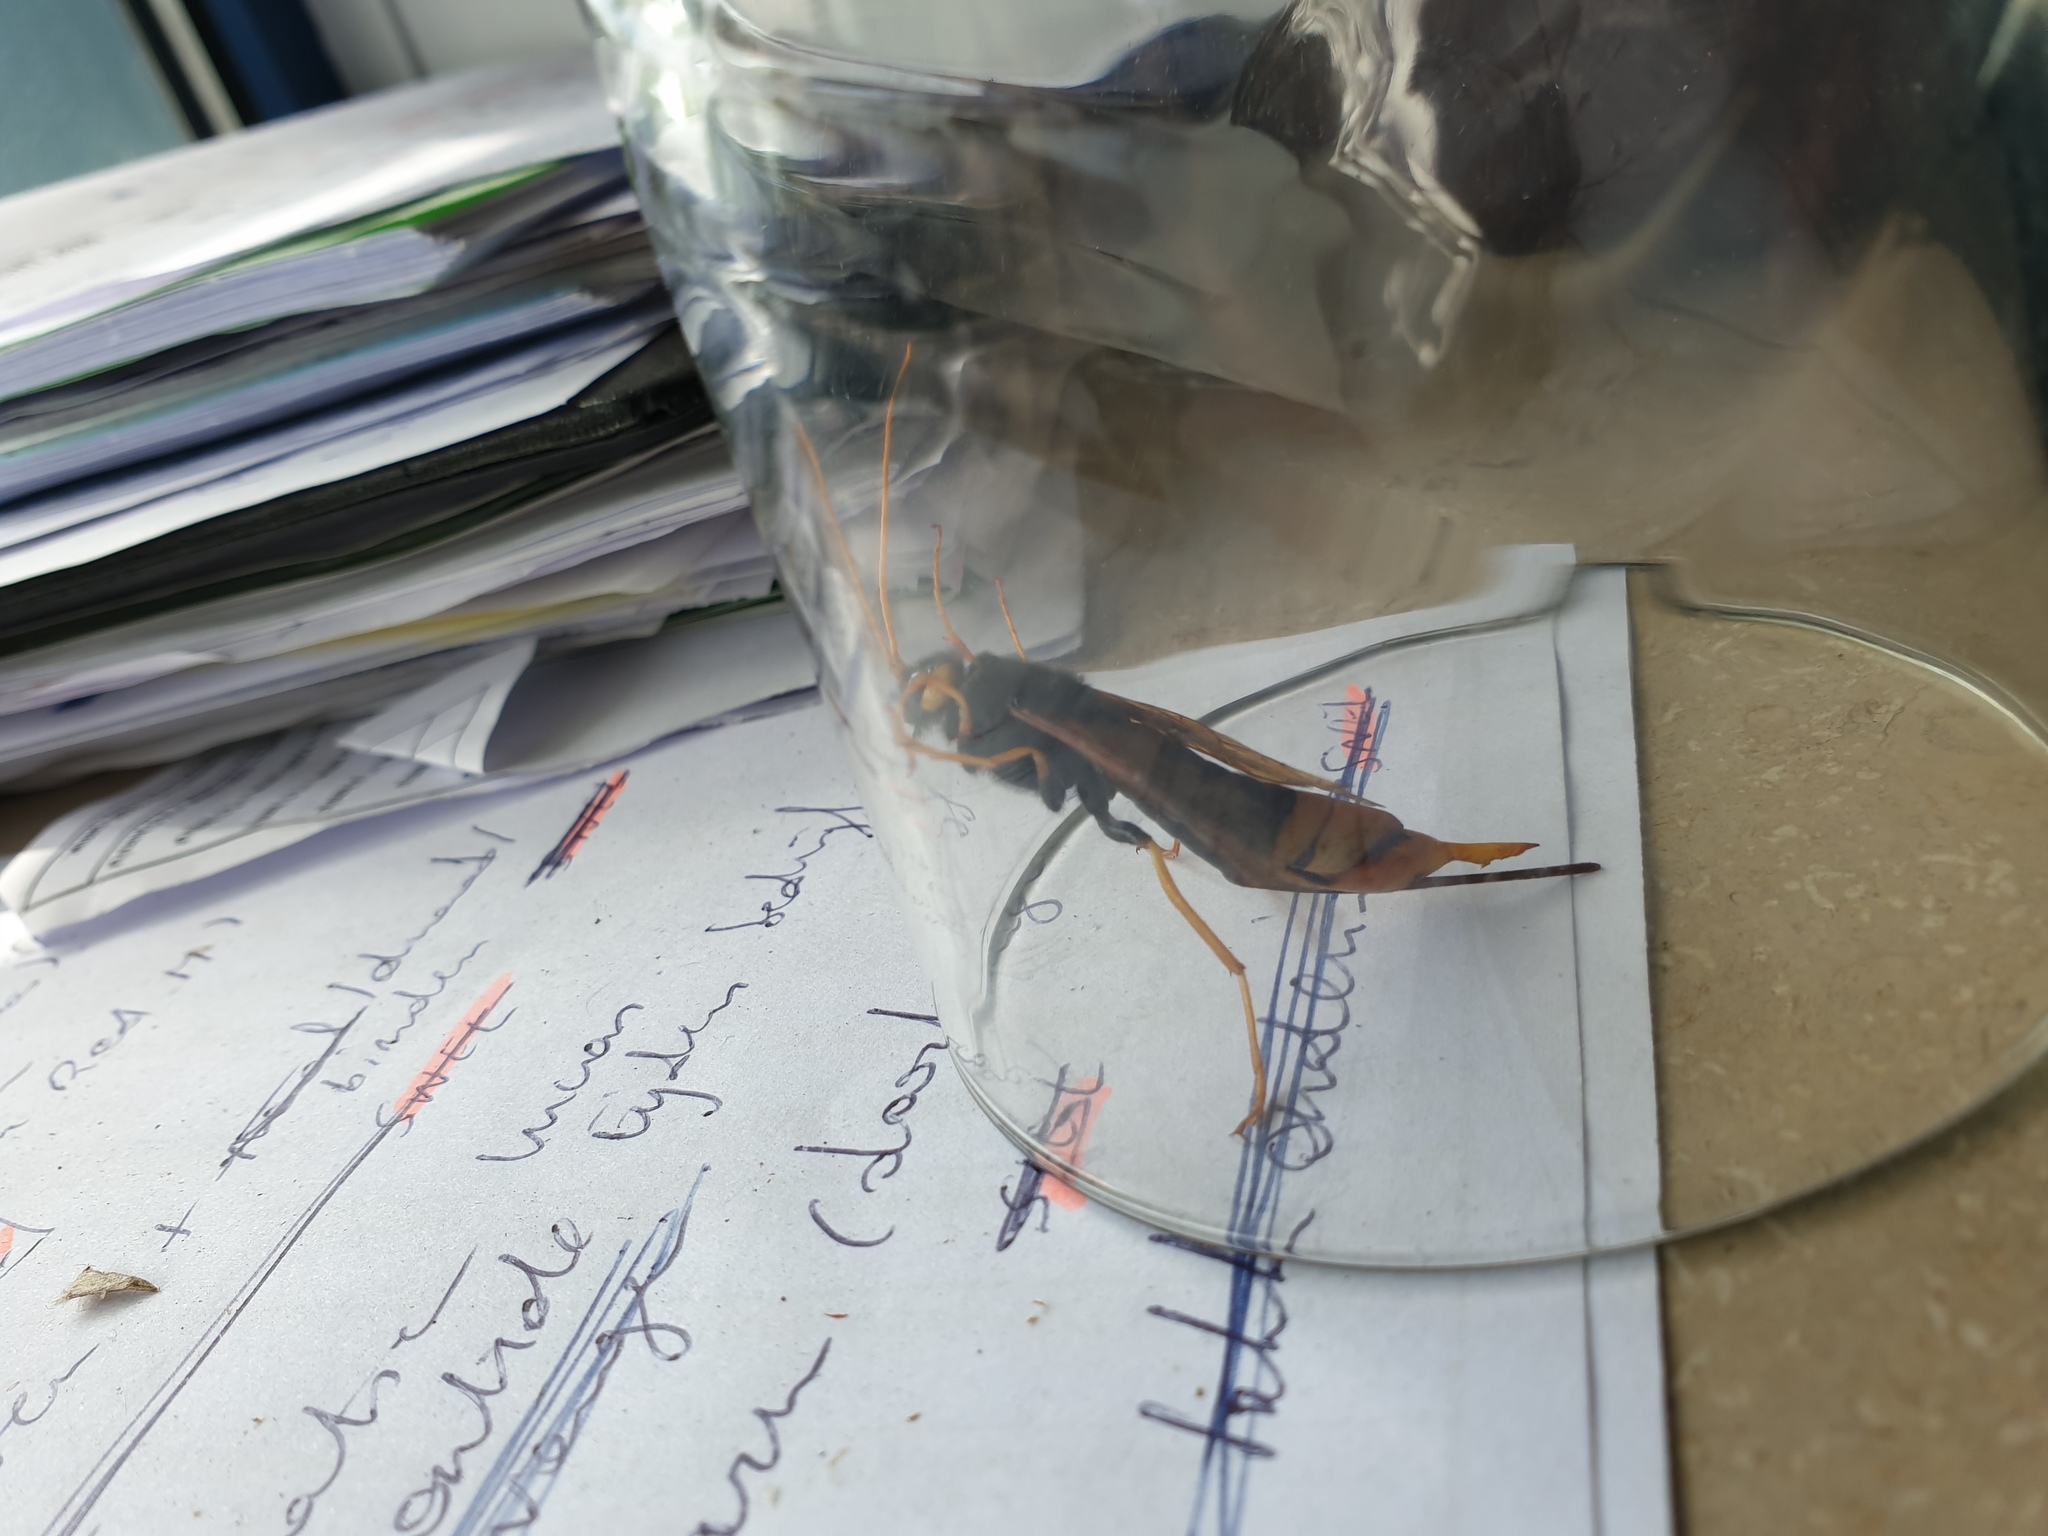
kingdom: Animalia
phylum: Arthropoda
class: Insecta
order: Hymenoptera
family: Siricidae
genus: Urocerus
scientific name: Urocerus gigas
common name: Giant woodwasp
